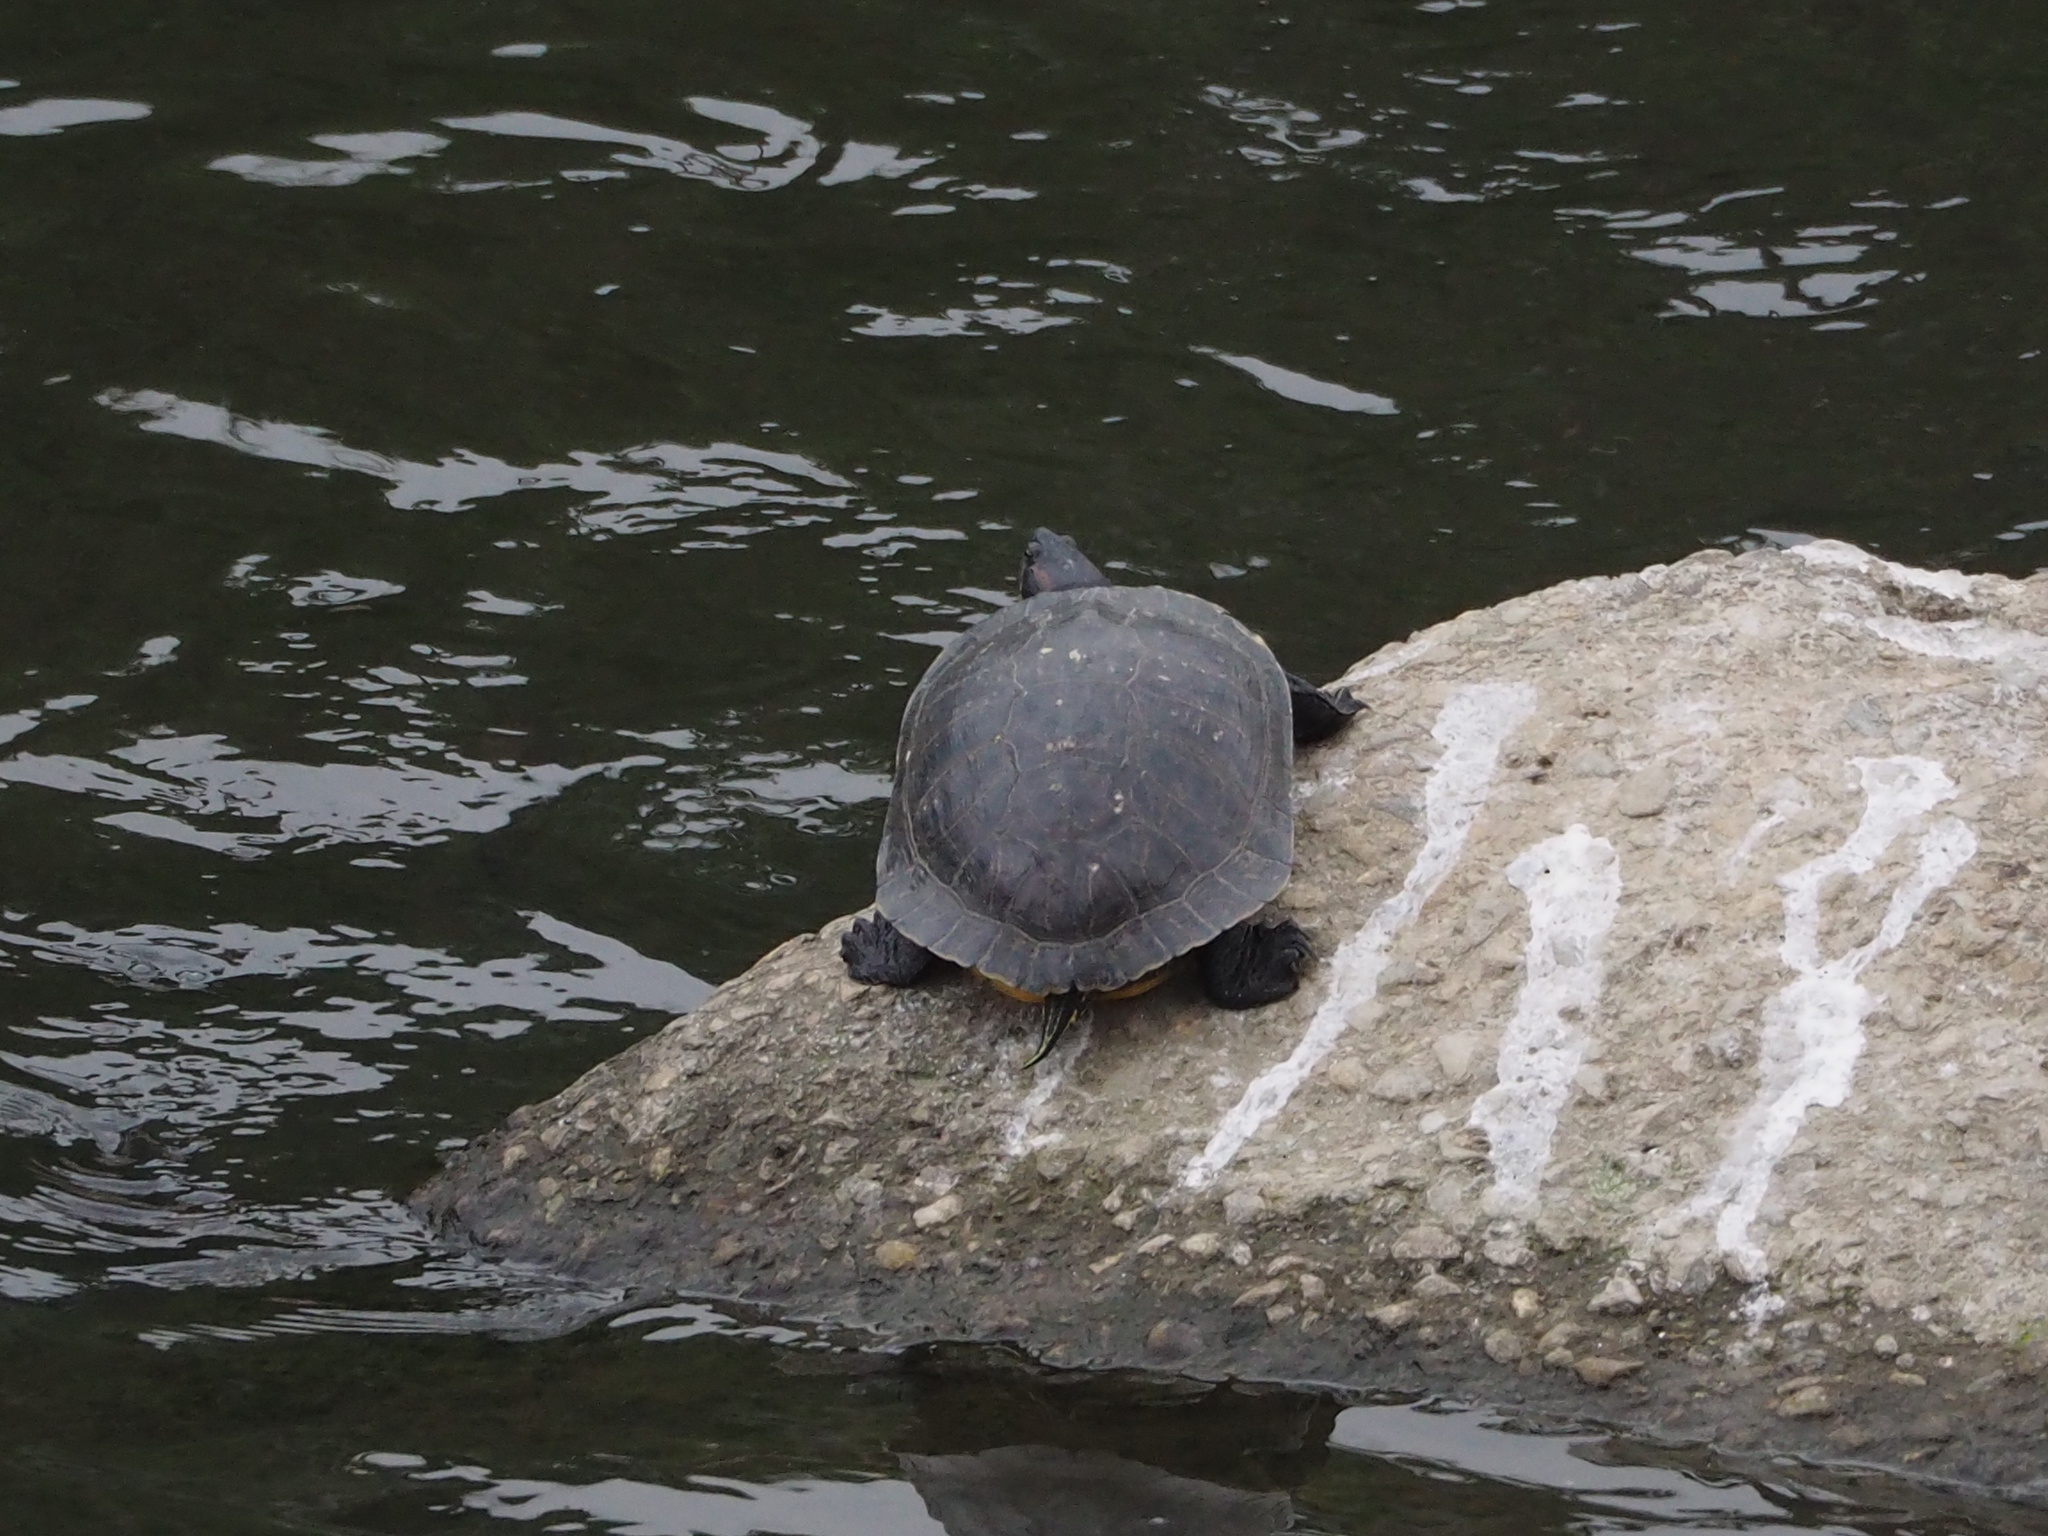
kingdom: Animalia
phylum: Chordata
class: Testudines
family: Emydidae
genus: Trachemys
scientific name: Trachemys scripta
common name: Slider
